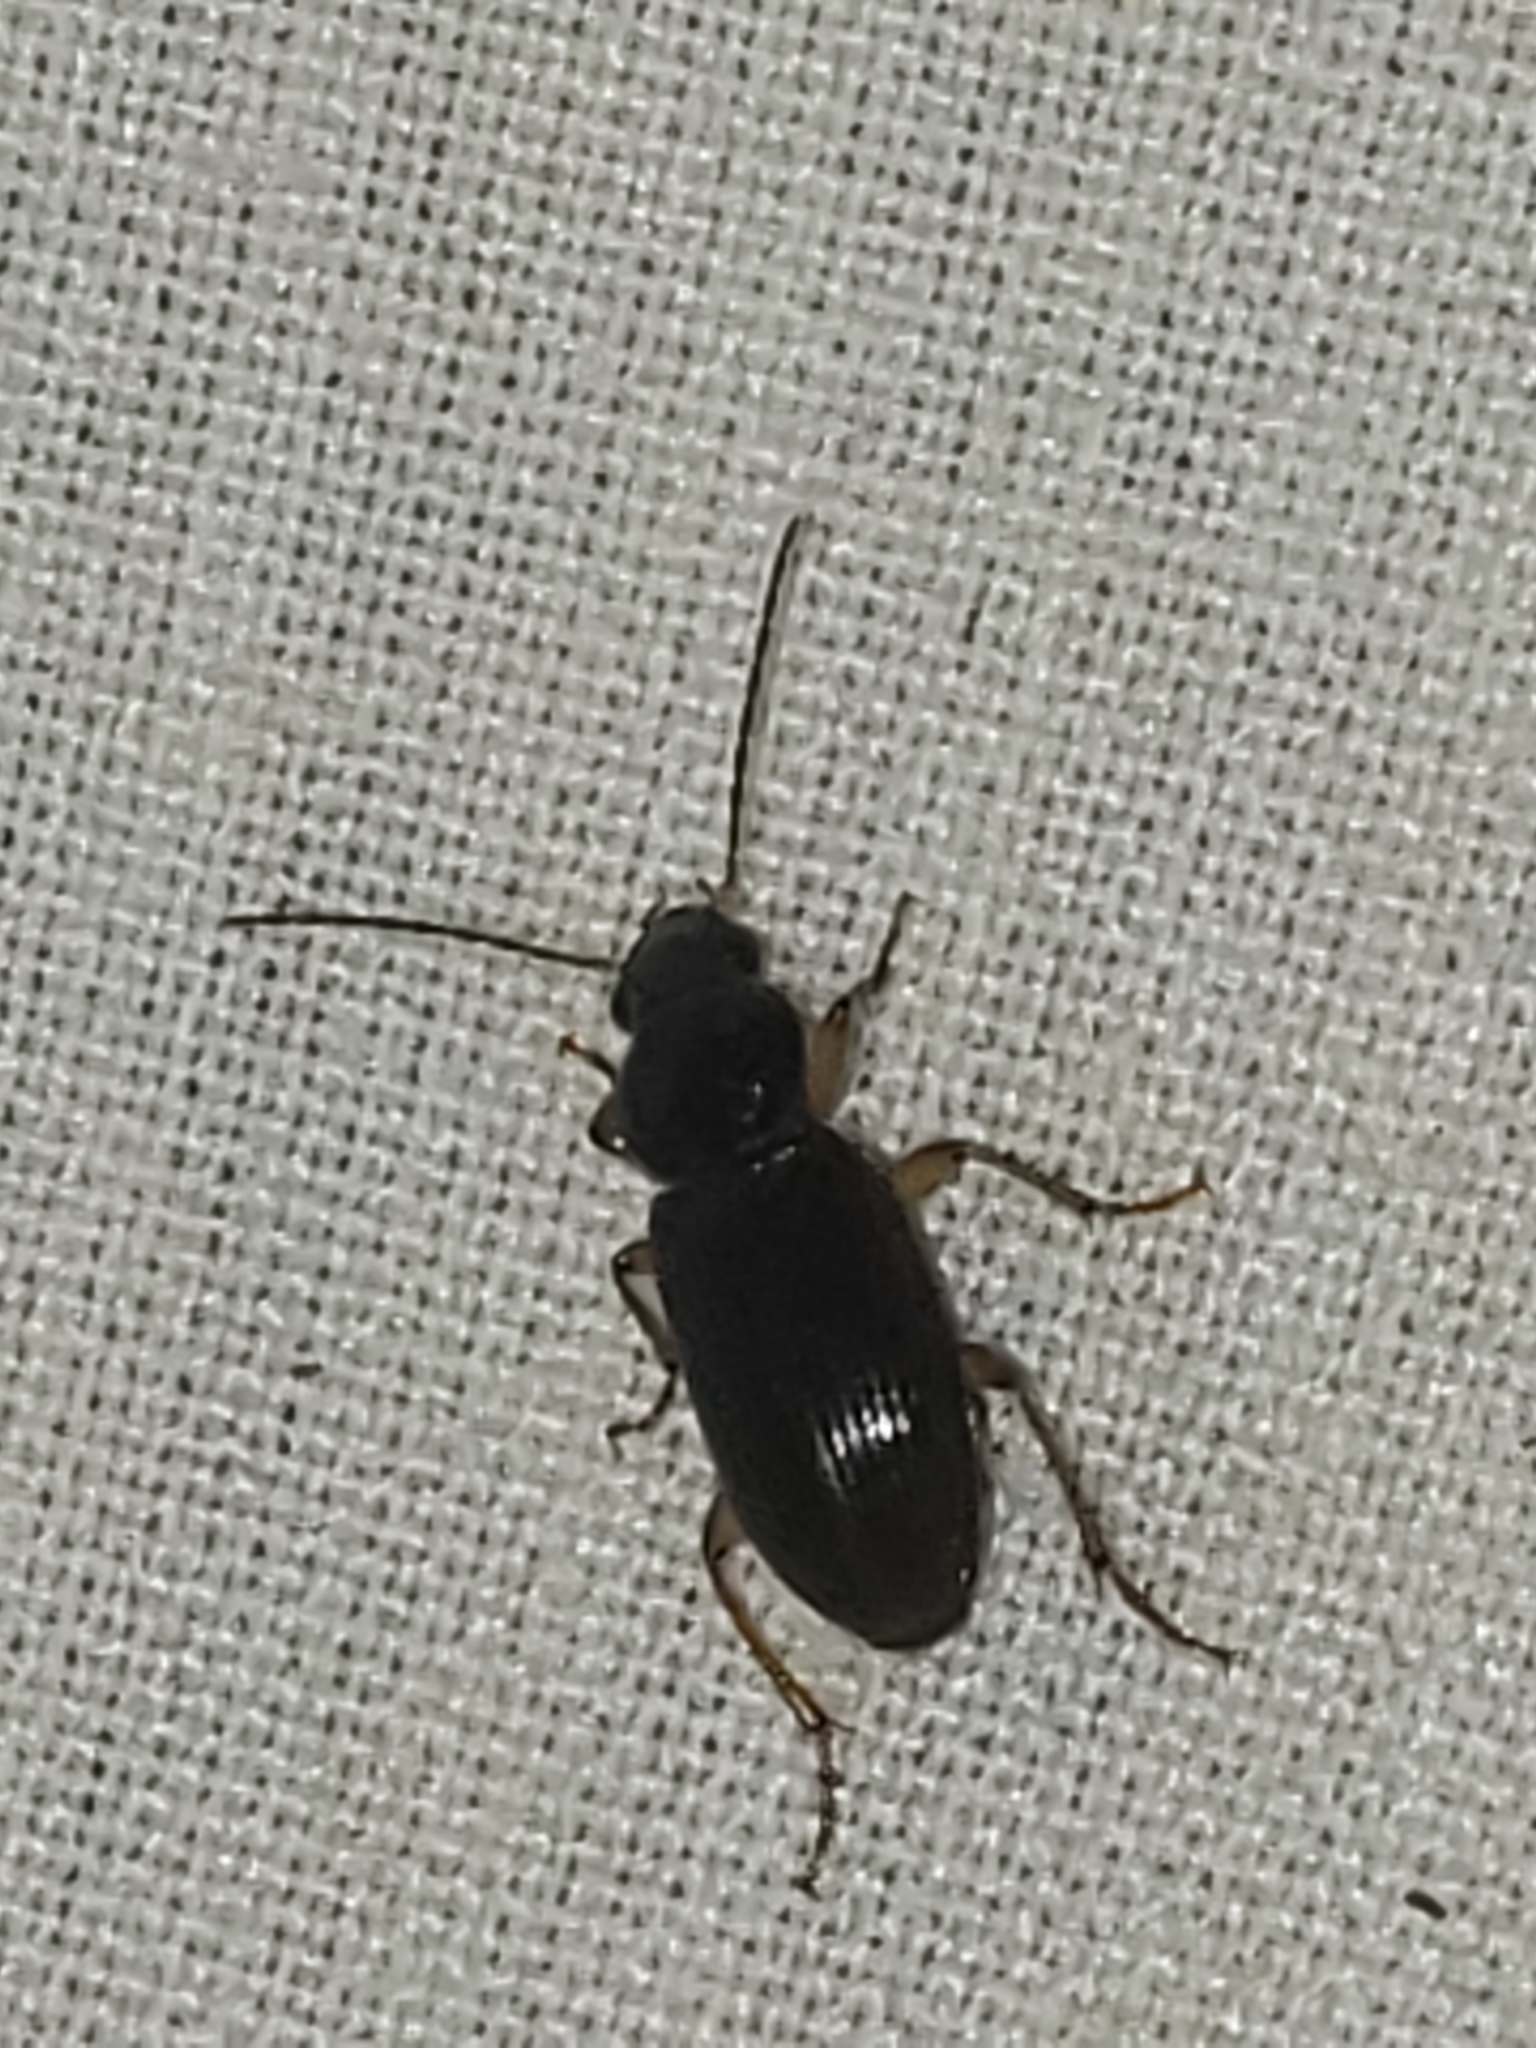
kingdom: Animalia
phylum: Arthropoda
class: Insecta
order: Coleoptera
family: Carabidae
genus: Stenolophus
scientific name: Stenolophus ochropezus
